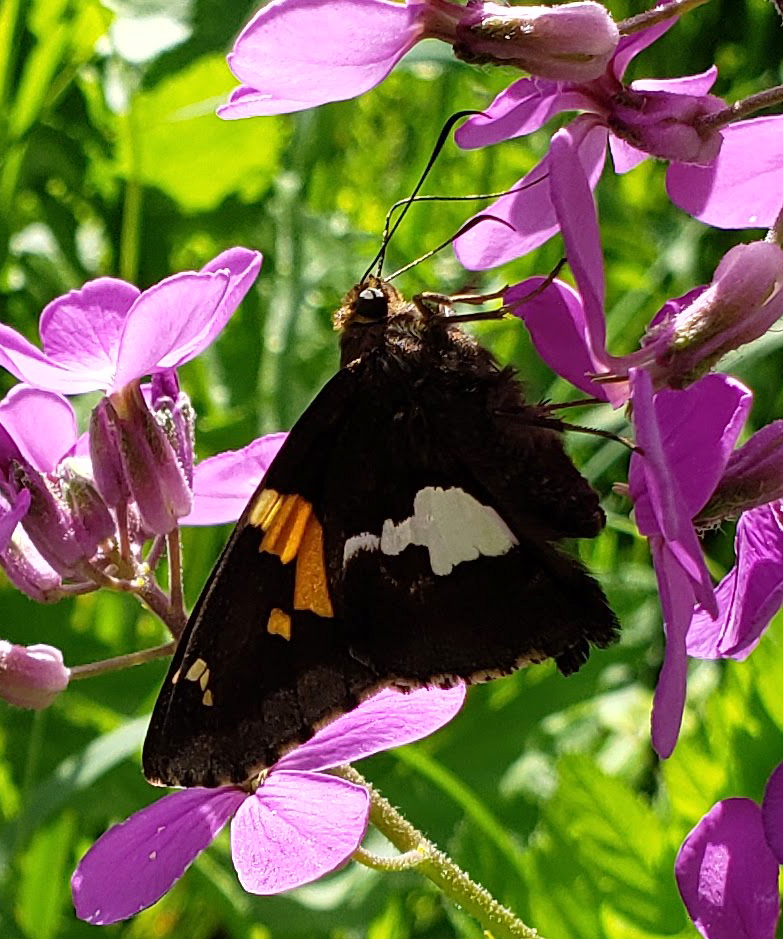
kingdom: Animalia
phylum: Arthropoda
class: Insecta
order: Lepidoptera
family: Hesperiidae
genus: Epargyreus
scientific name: Epargyreus clarus
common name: Silver-spotted skipper
